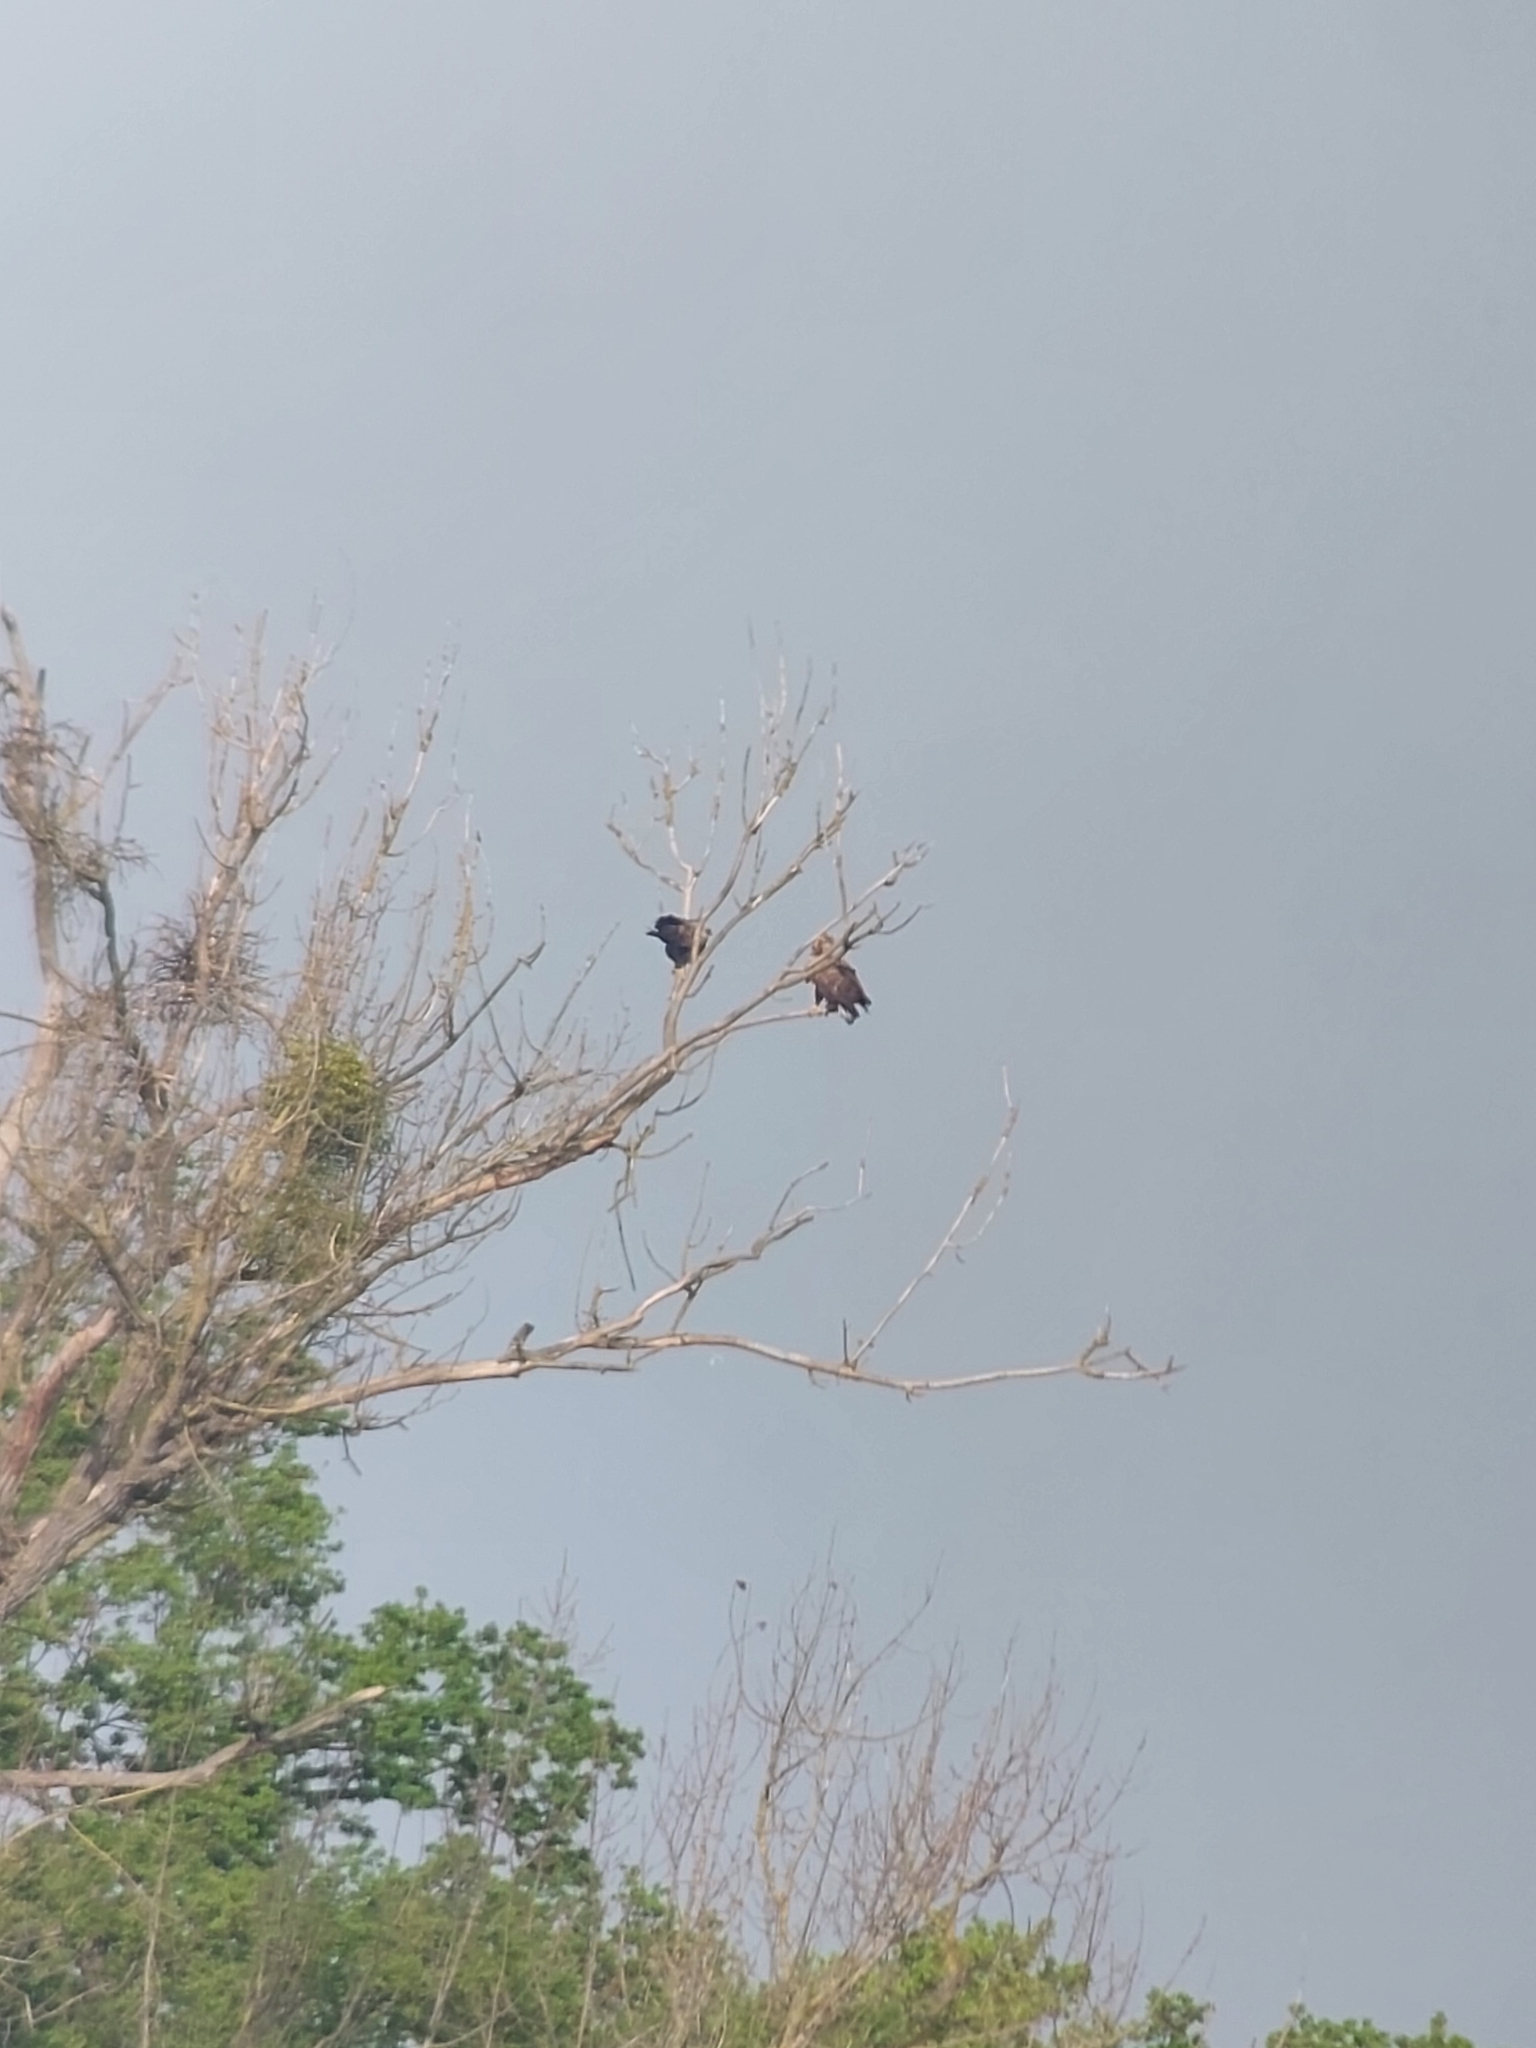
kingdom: Animalia
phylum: Chordata
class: Aves
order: Accipitriformes
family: Accipitridae
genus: Haliaeetus
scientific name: Haliaeetus albicilla
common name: White-tailed eagle
